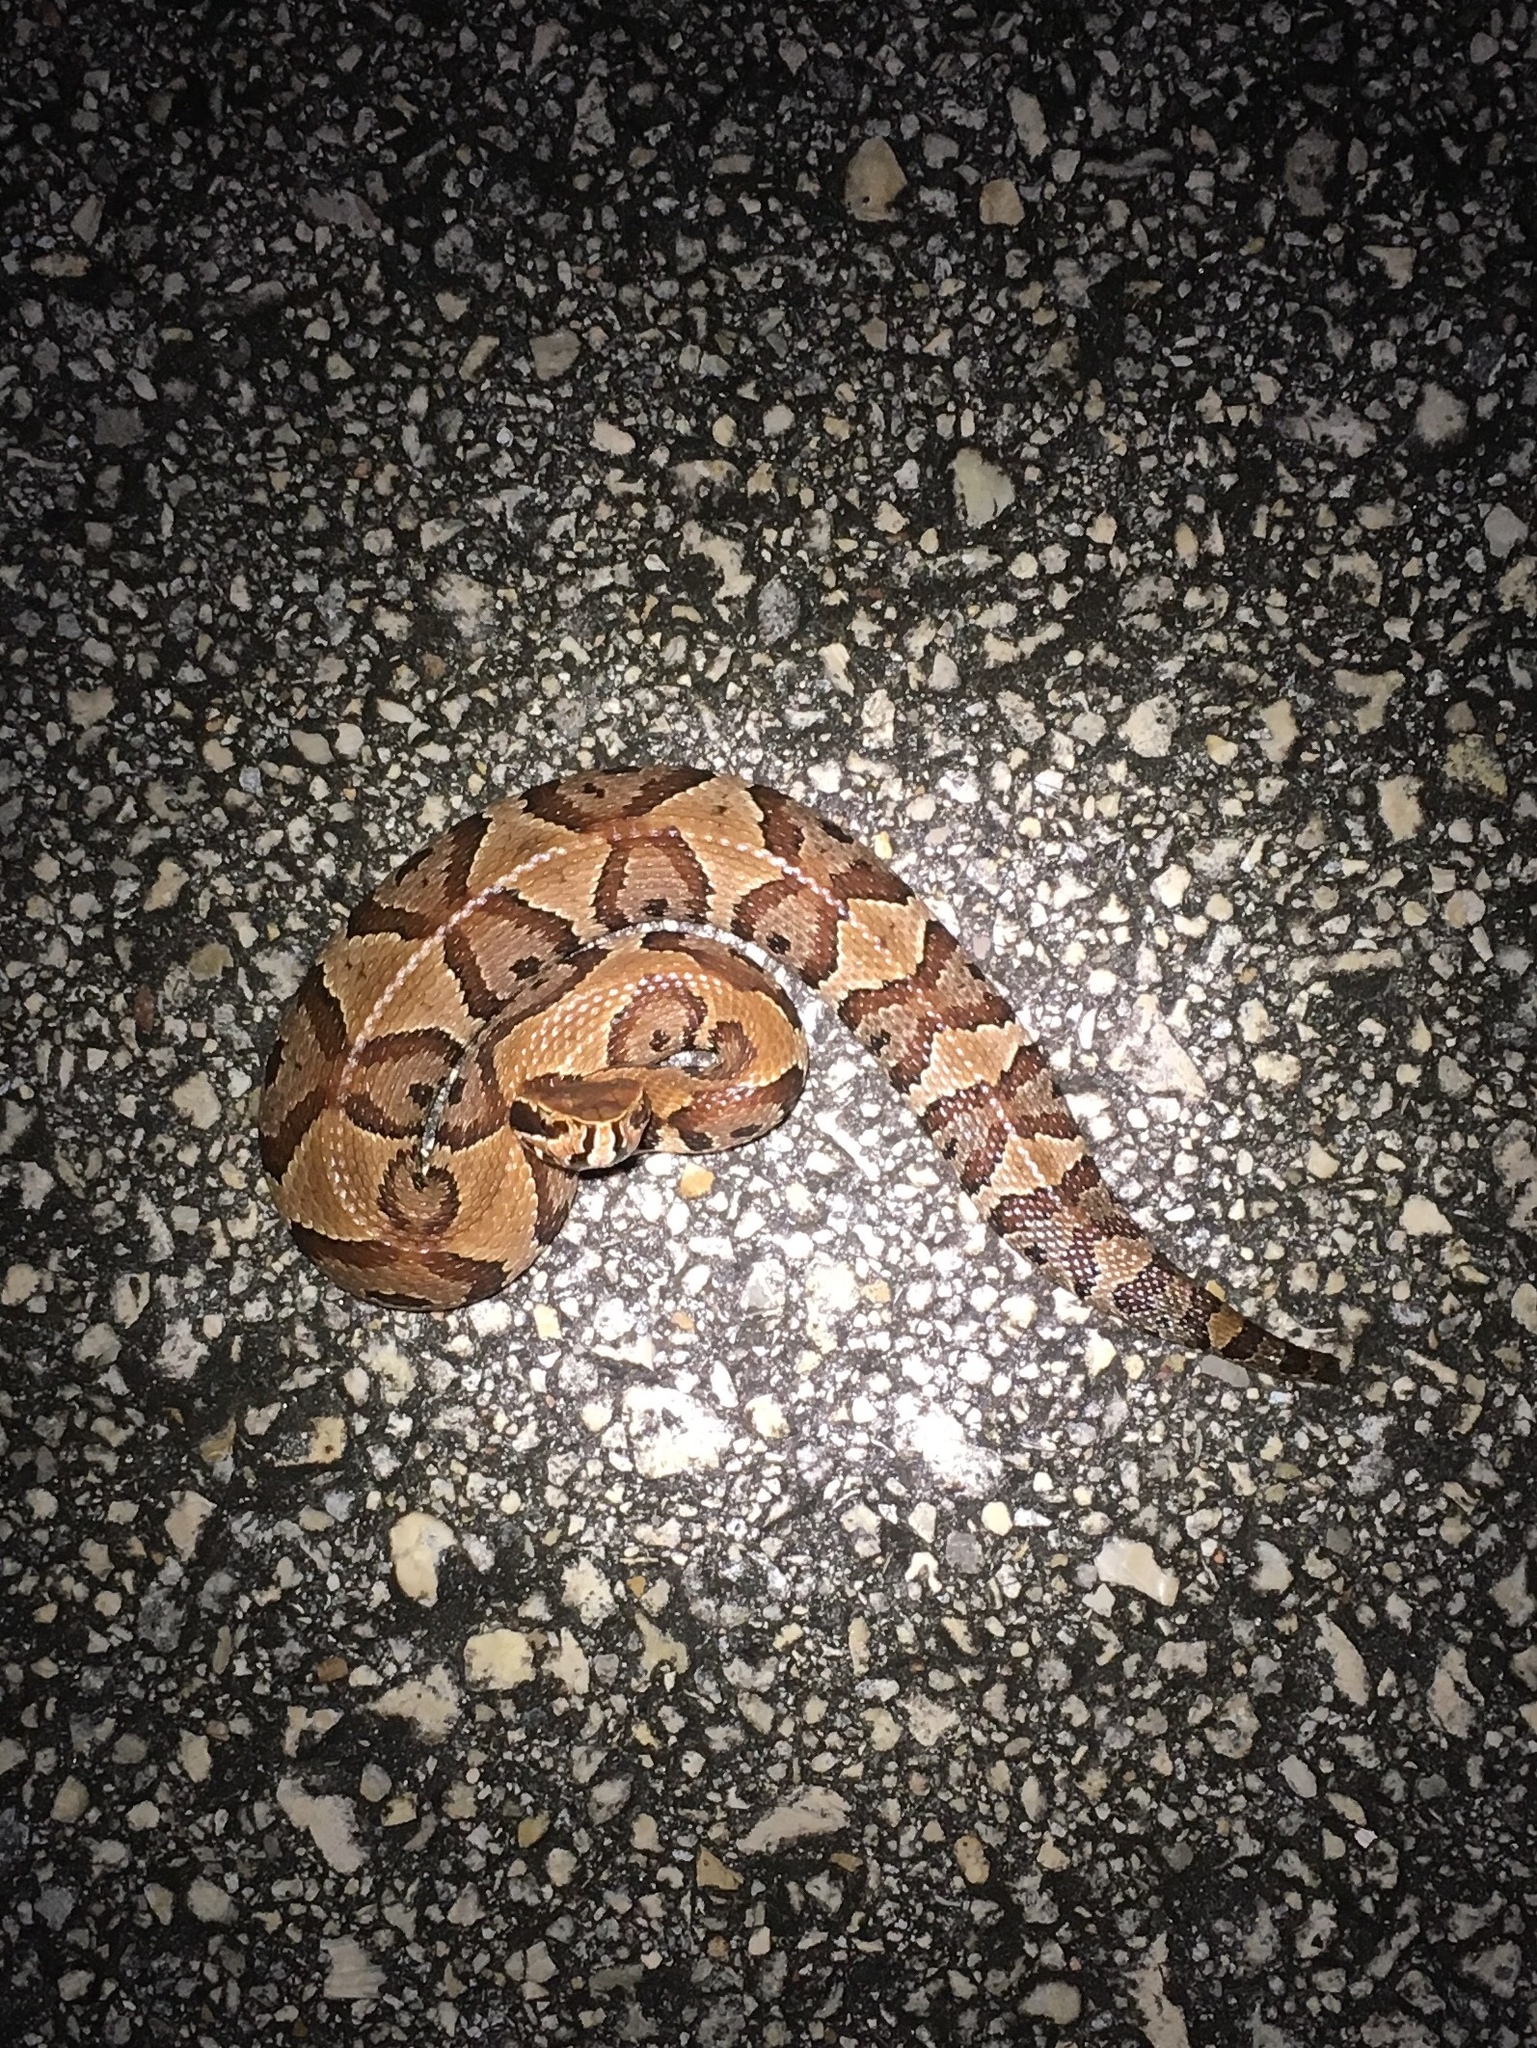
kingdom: Animalia
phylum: Chordata
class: Squamata
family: Viperidae
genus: Agkistrodon
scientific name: Agkistrodon conanti
